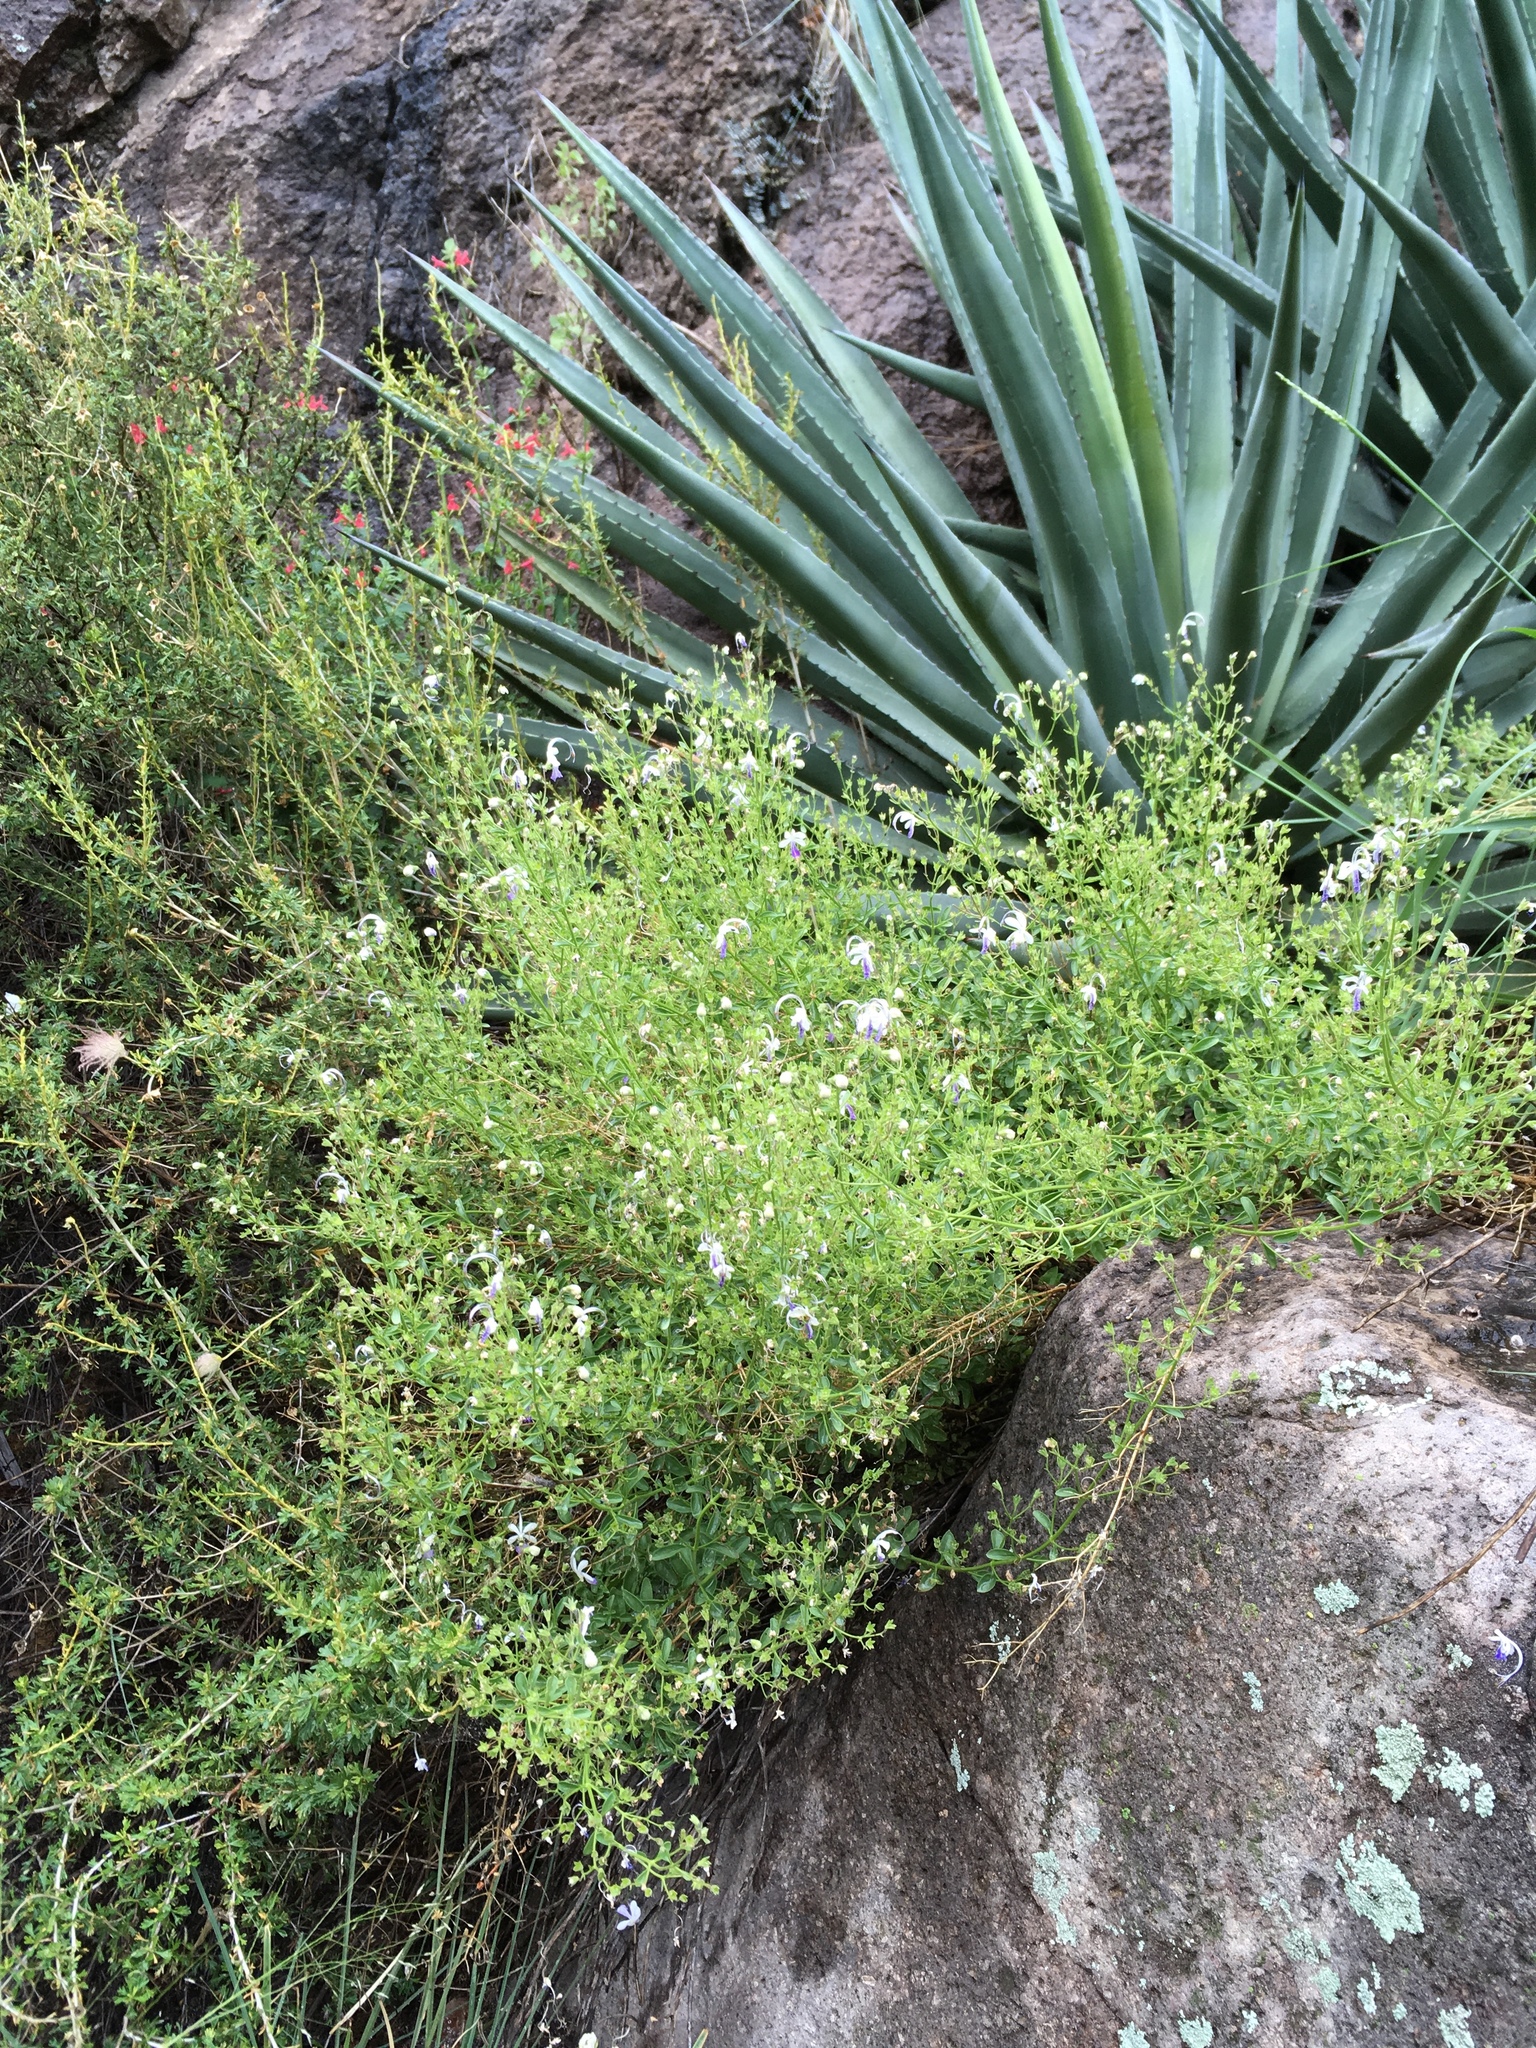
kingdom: Plantae
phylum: Tracheophyta
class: Magnoliopsida
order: Lamiales
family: Lamiaceae
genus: Trichostema
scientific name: Trichostema arizonicum
